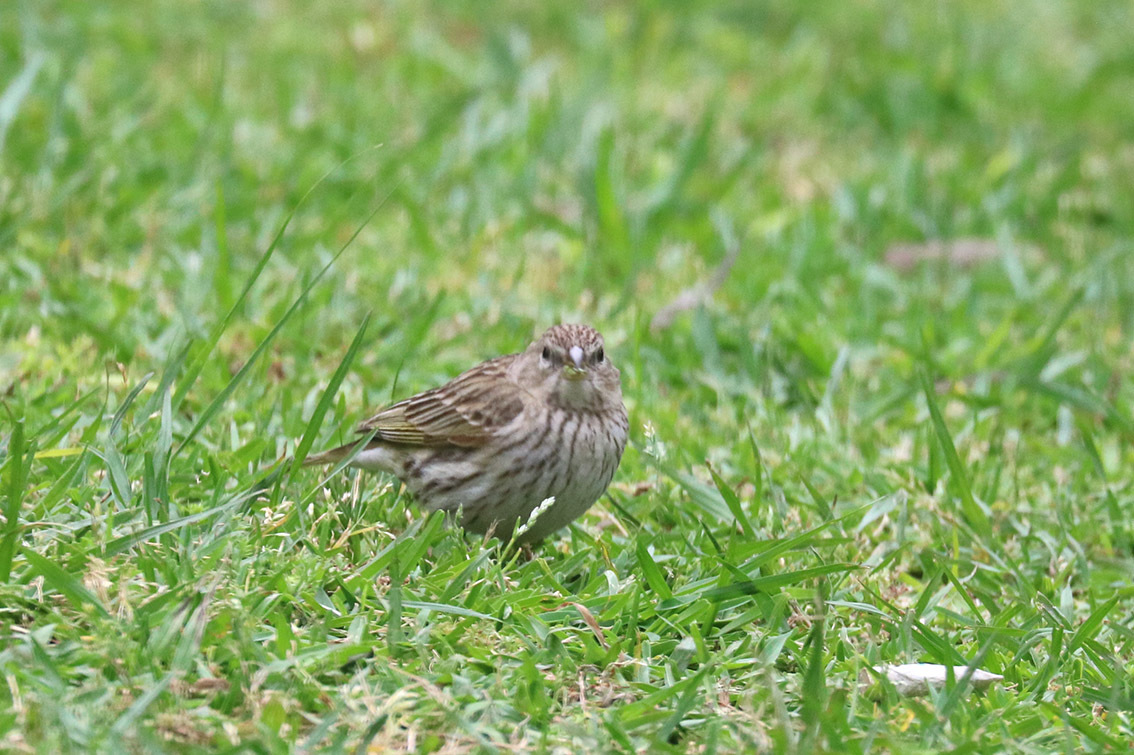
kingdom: Animalia
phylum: Chordata
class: Aves
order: Passeriformes
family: Thraupidae
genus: Sicalis
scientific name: Sicalis flaveola
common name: Saffron finch
